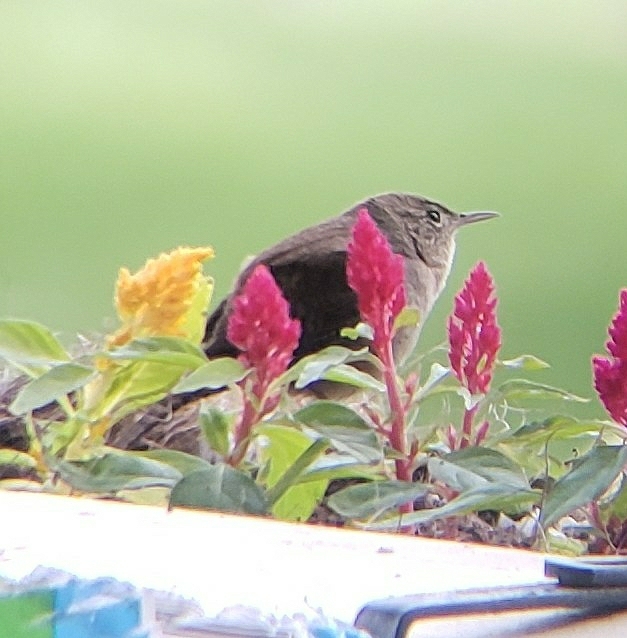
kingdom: Animalia
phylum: Chordata
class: Aves
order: Passeriformes
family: Troglodytidae
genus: Troglodytes
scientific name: Troglodytes aedon
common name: House wren
